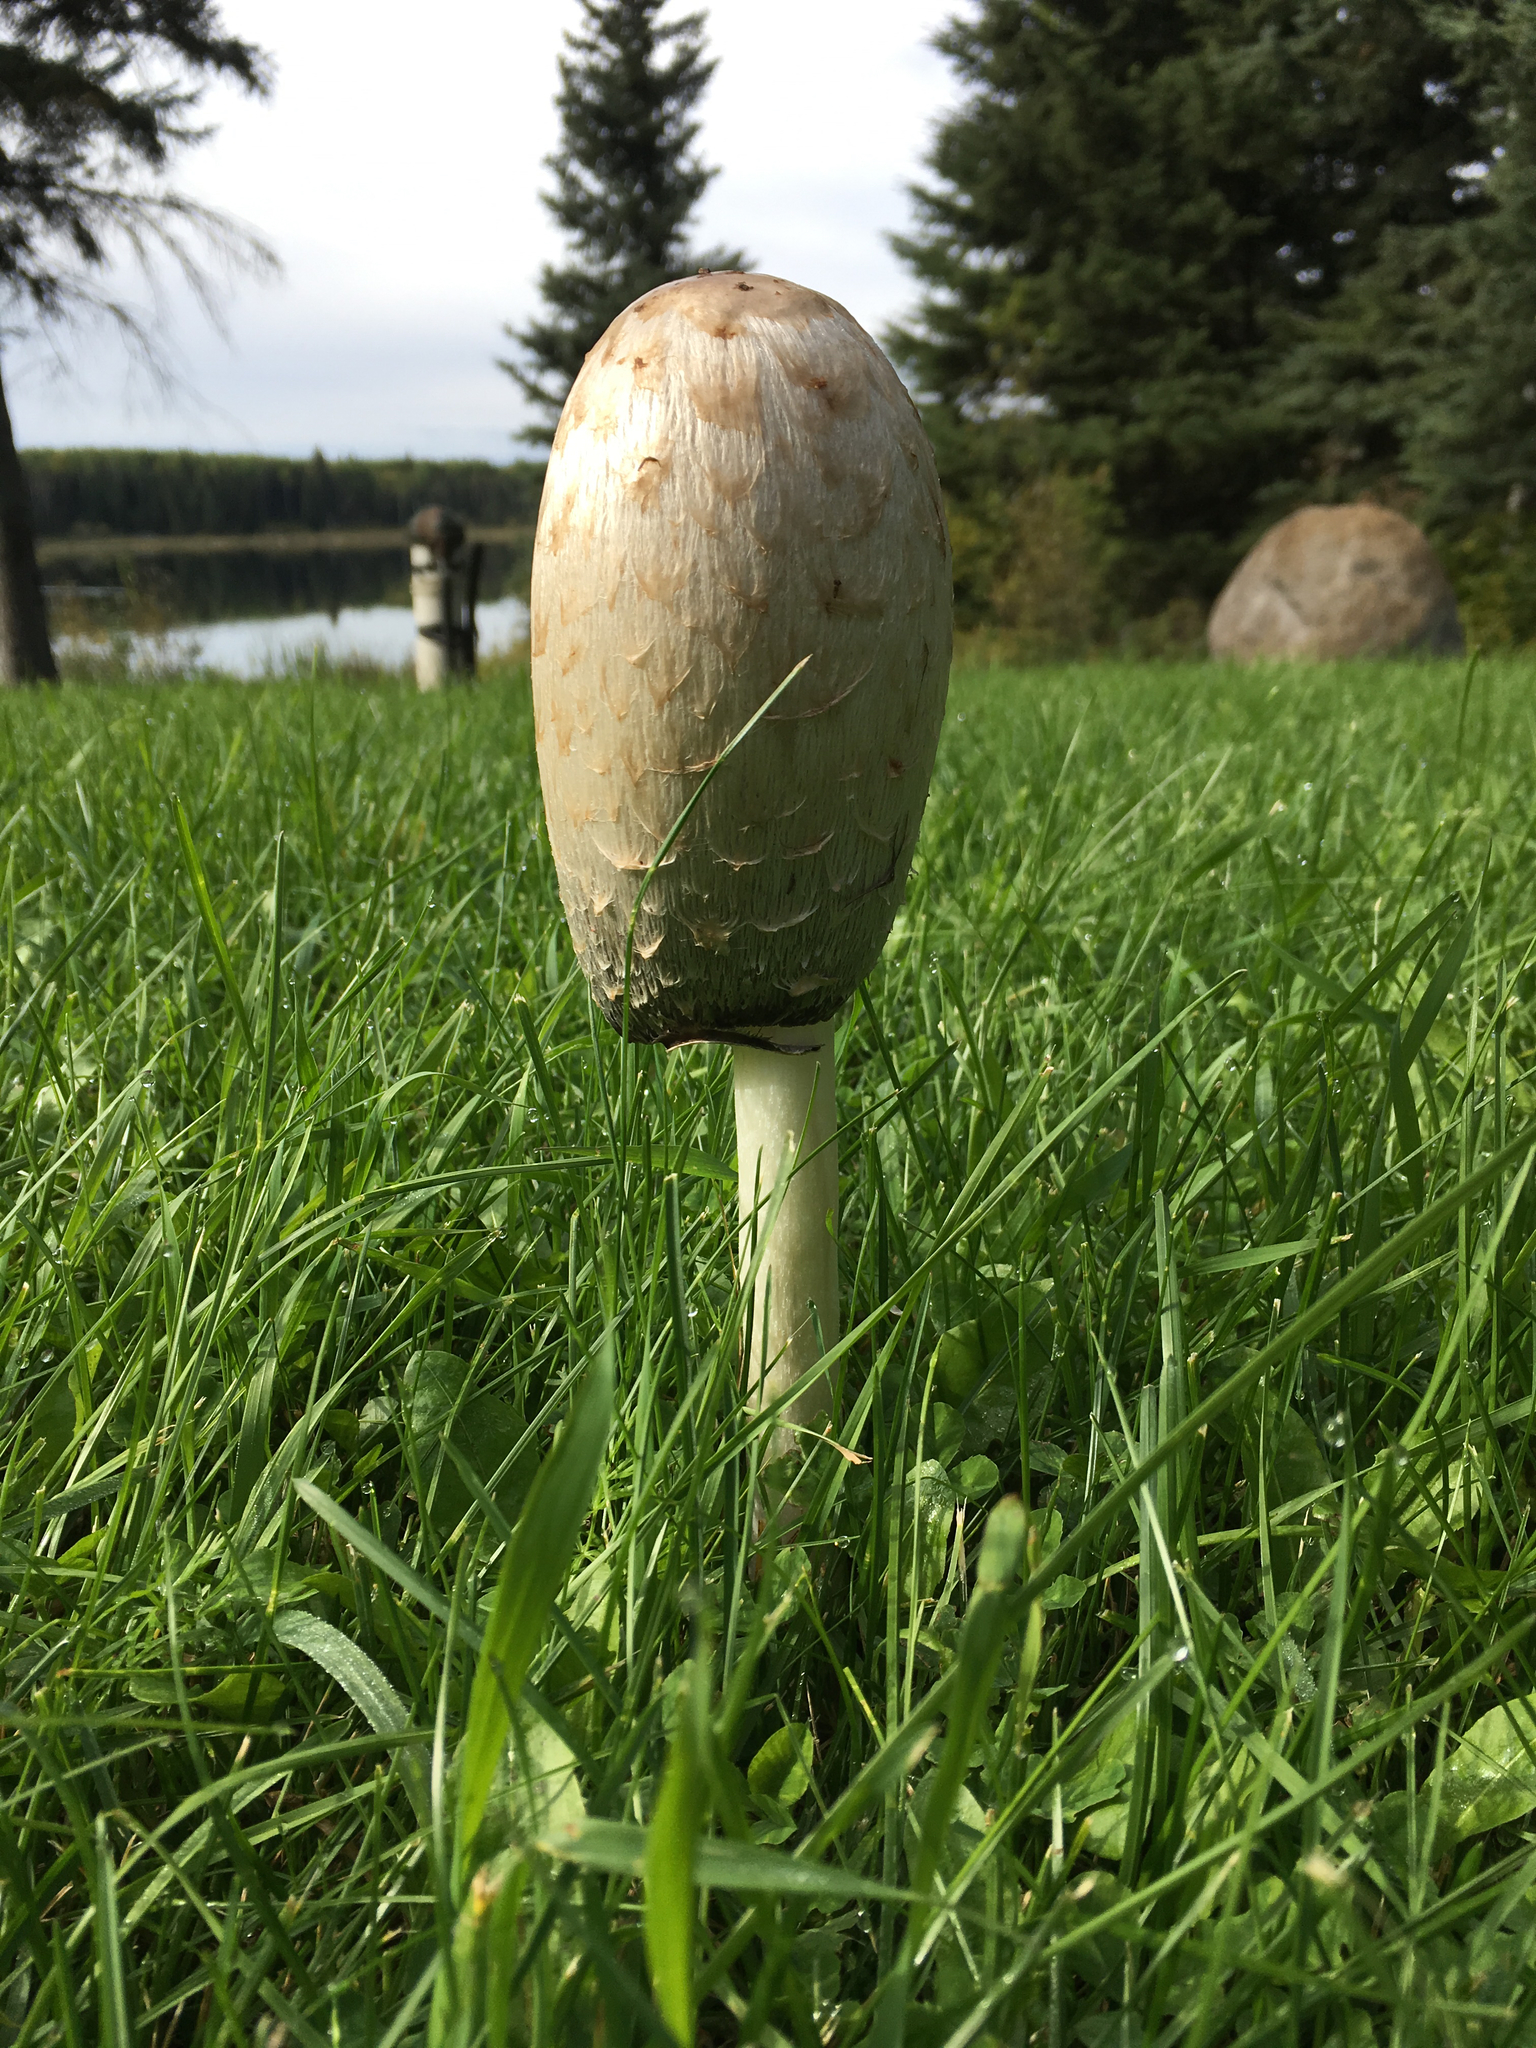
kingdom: Fungi
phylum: Basidiomycota
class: Agaricomycetes
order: Agaricales
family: Agaricaceae
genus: Coprinus
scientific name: Coprinus comatus
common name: Lawyer's wig
